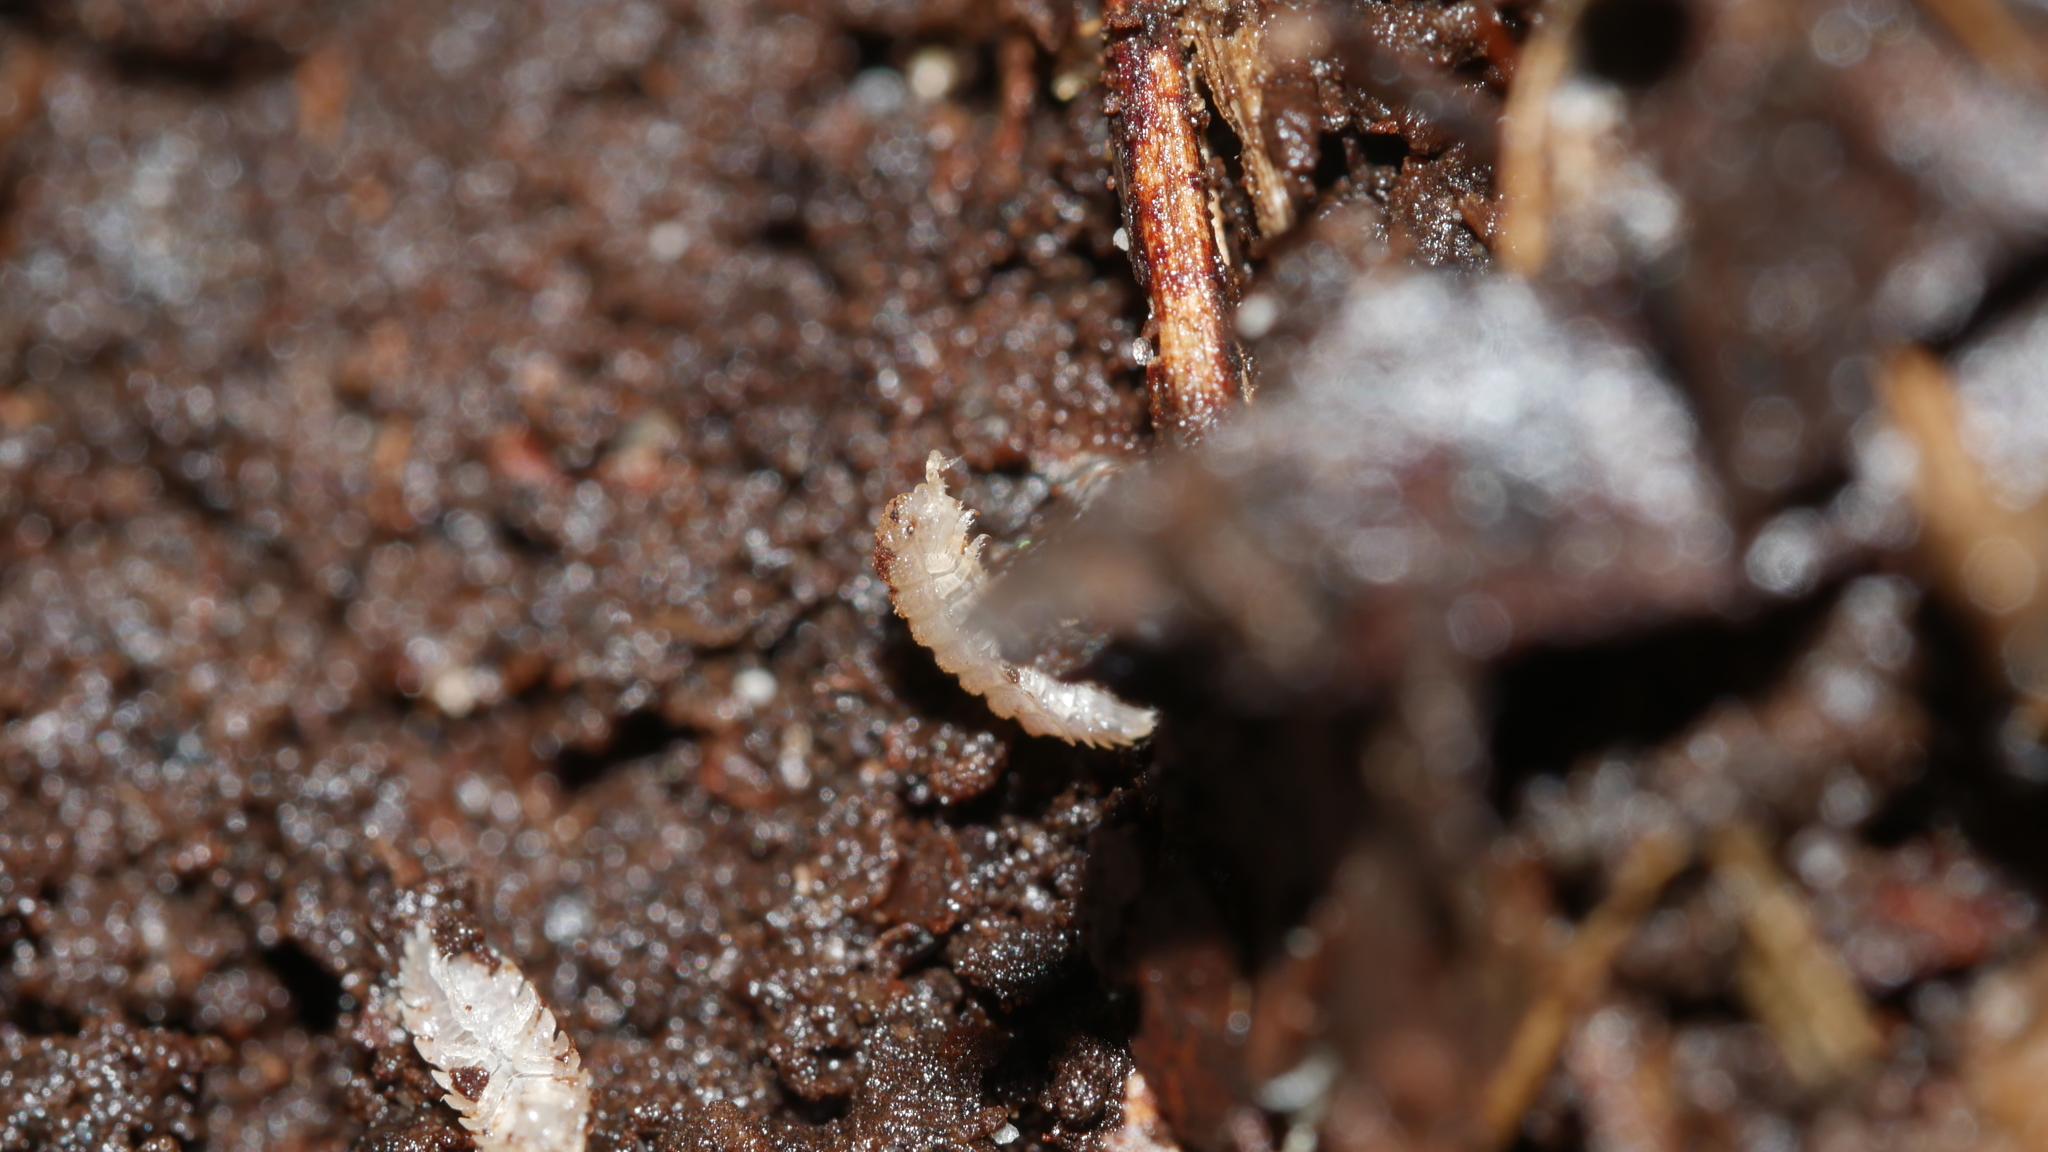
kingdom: Animalia
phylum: Arthropoda
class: Malacostraca
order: Isopoda
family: Trichoniscidae
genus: Haplophthalmus
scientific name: Haplophthalmus danicus
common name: Pillbug
